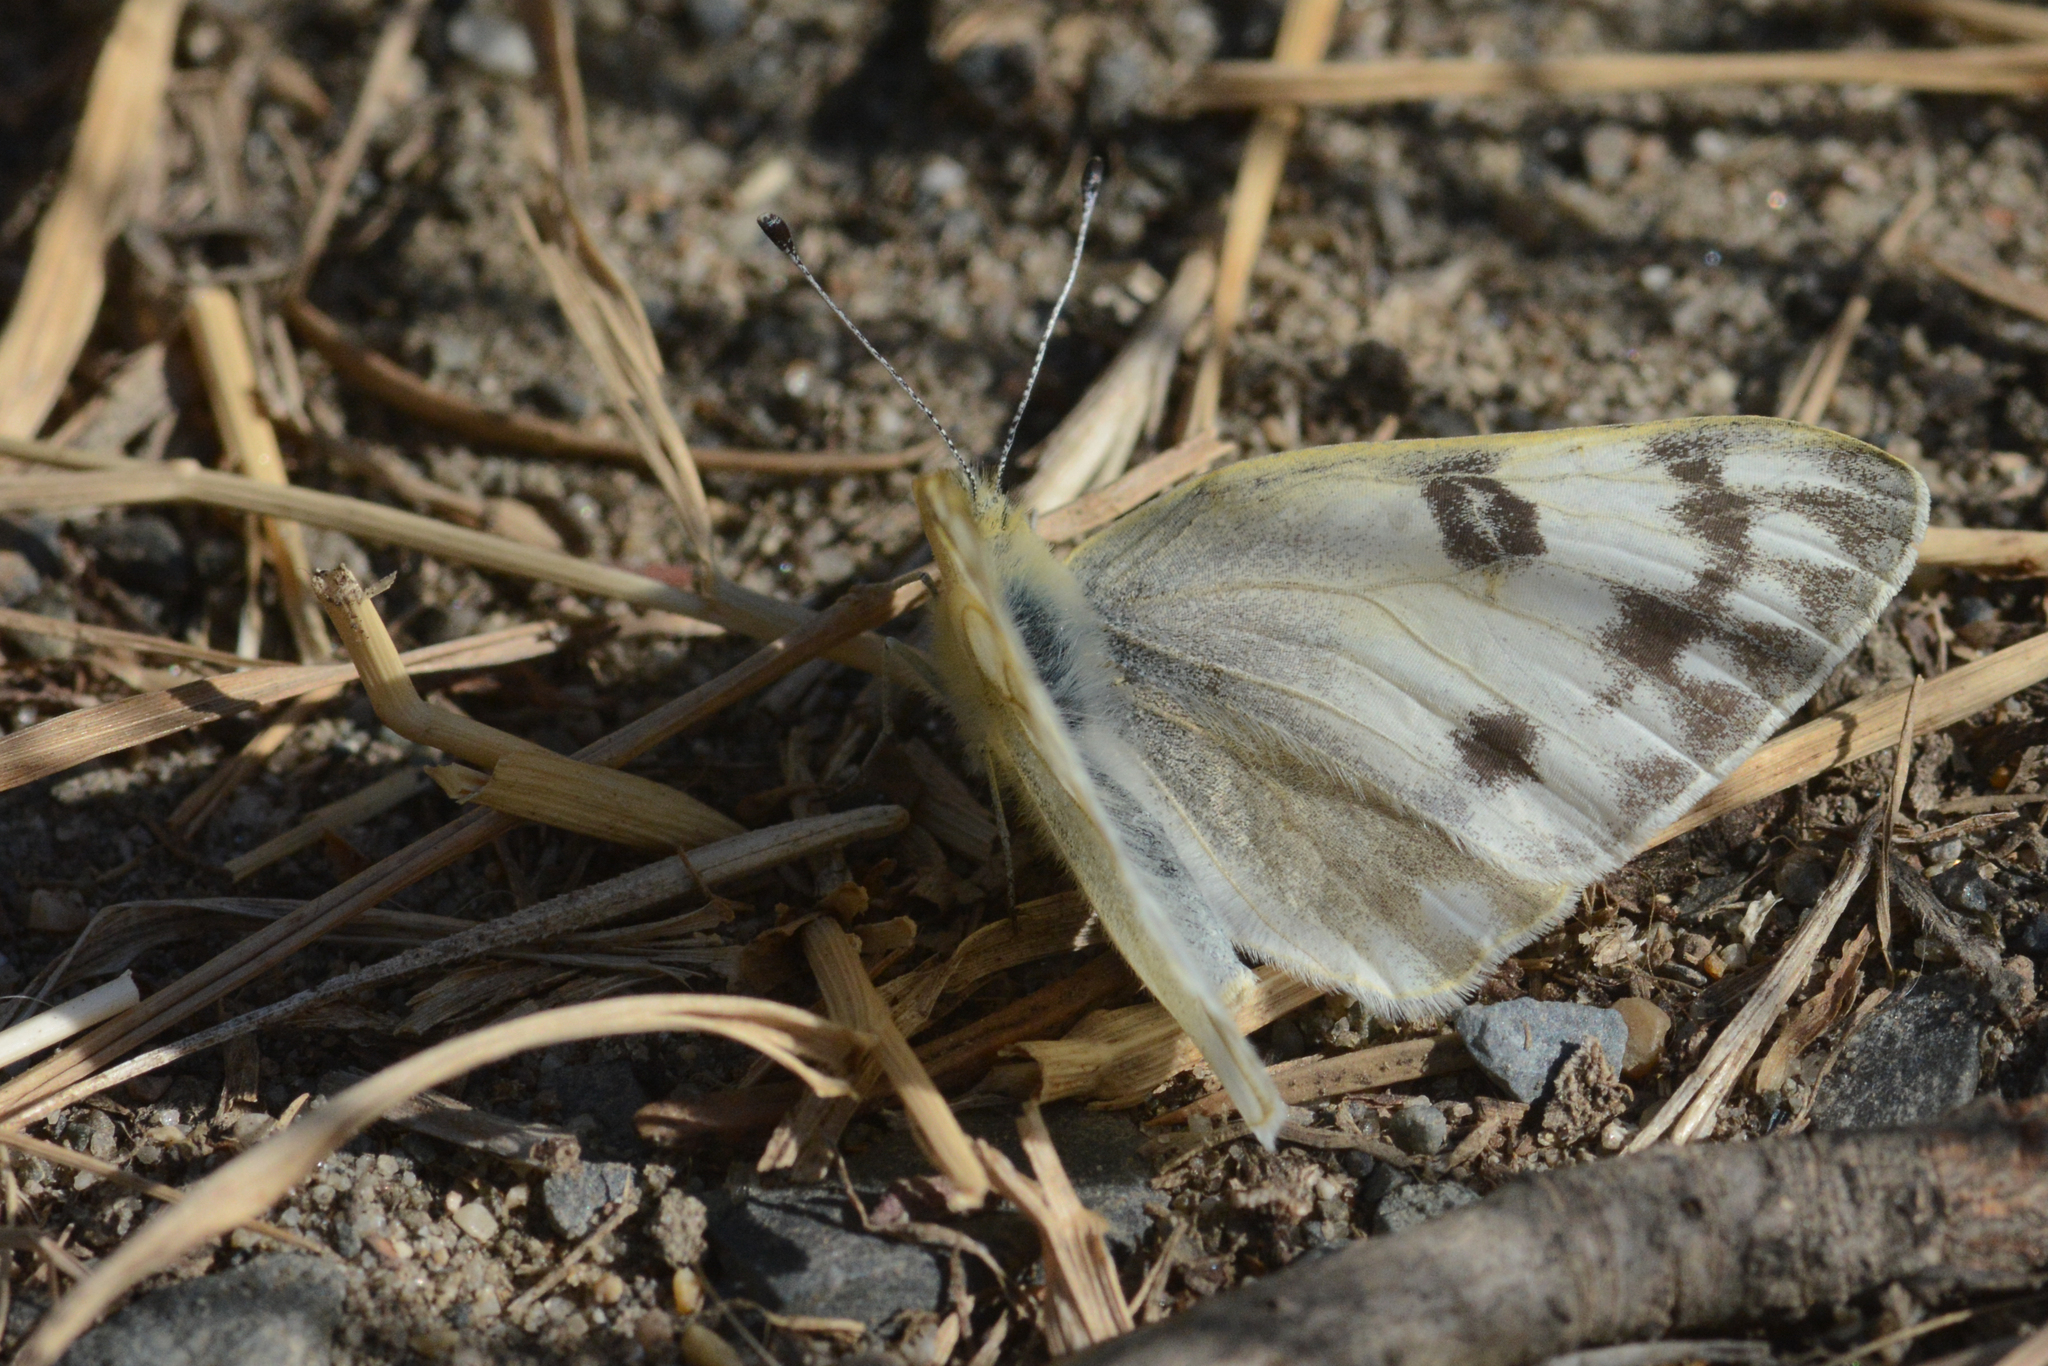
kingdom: Animalia
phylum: Arthropoda
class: Insecta
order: Lepidoptera
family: Pieridae
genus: Pontia
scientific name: Pontia occidentalis
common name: Western white
